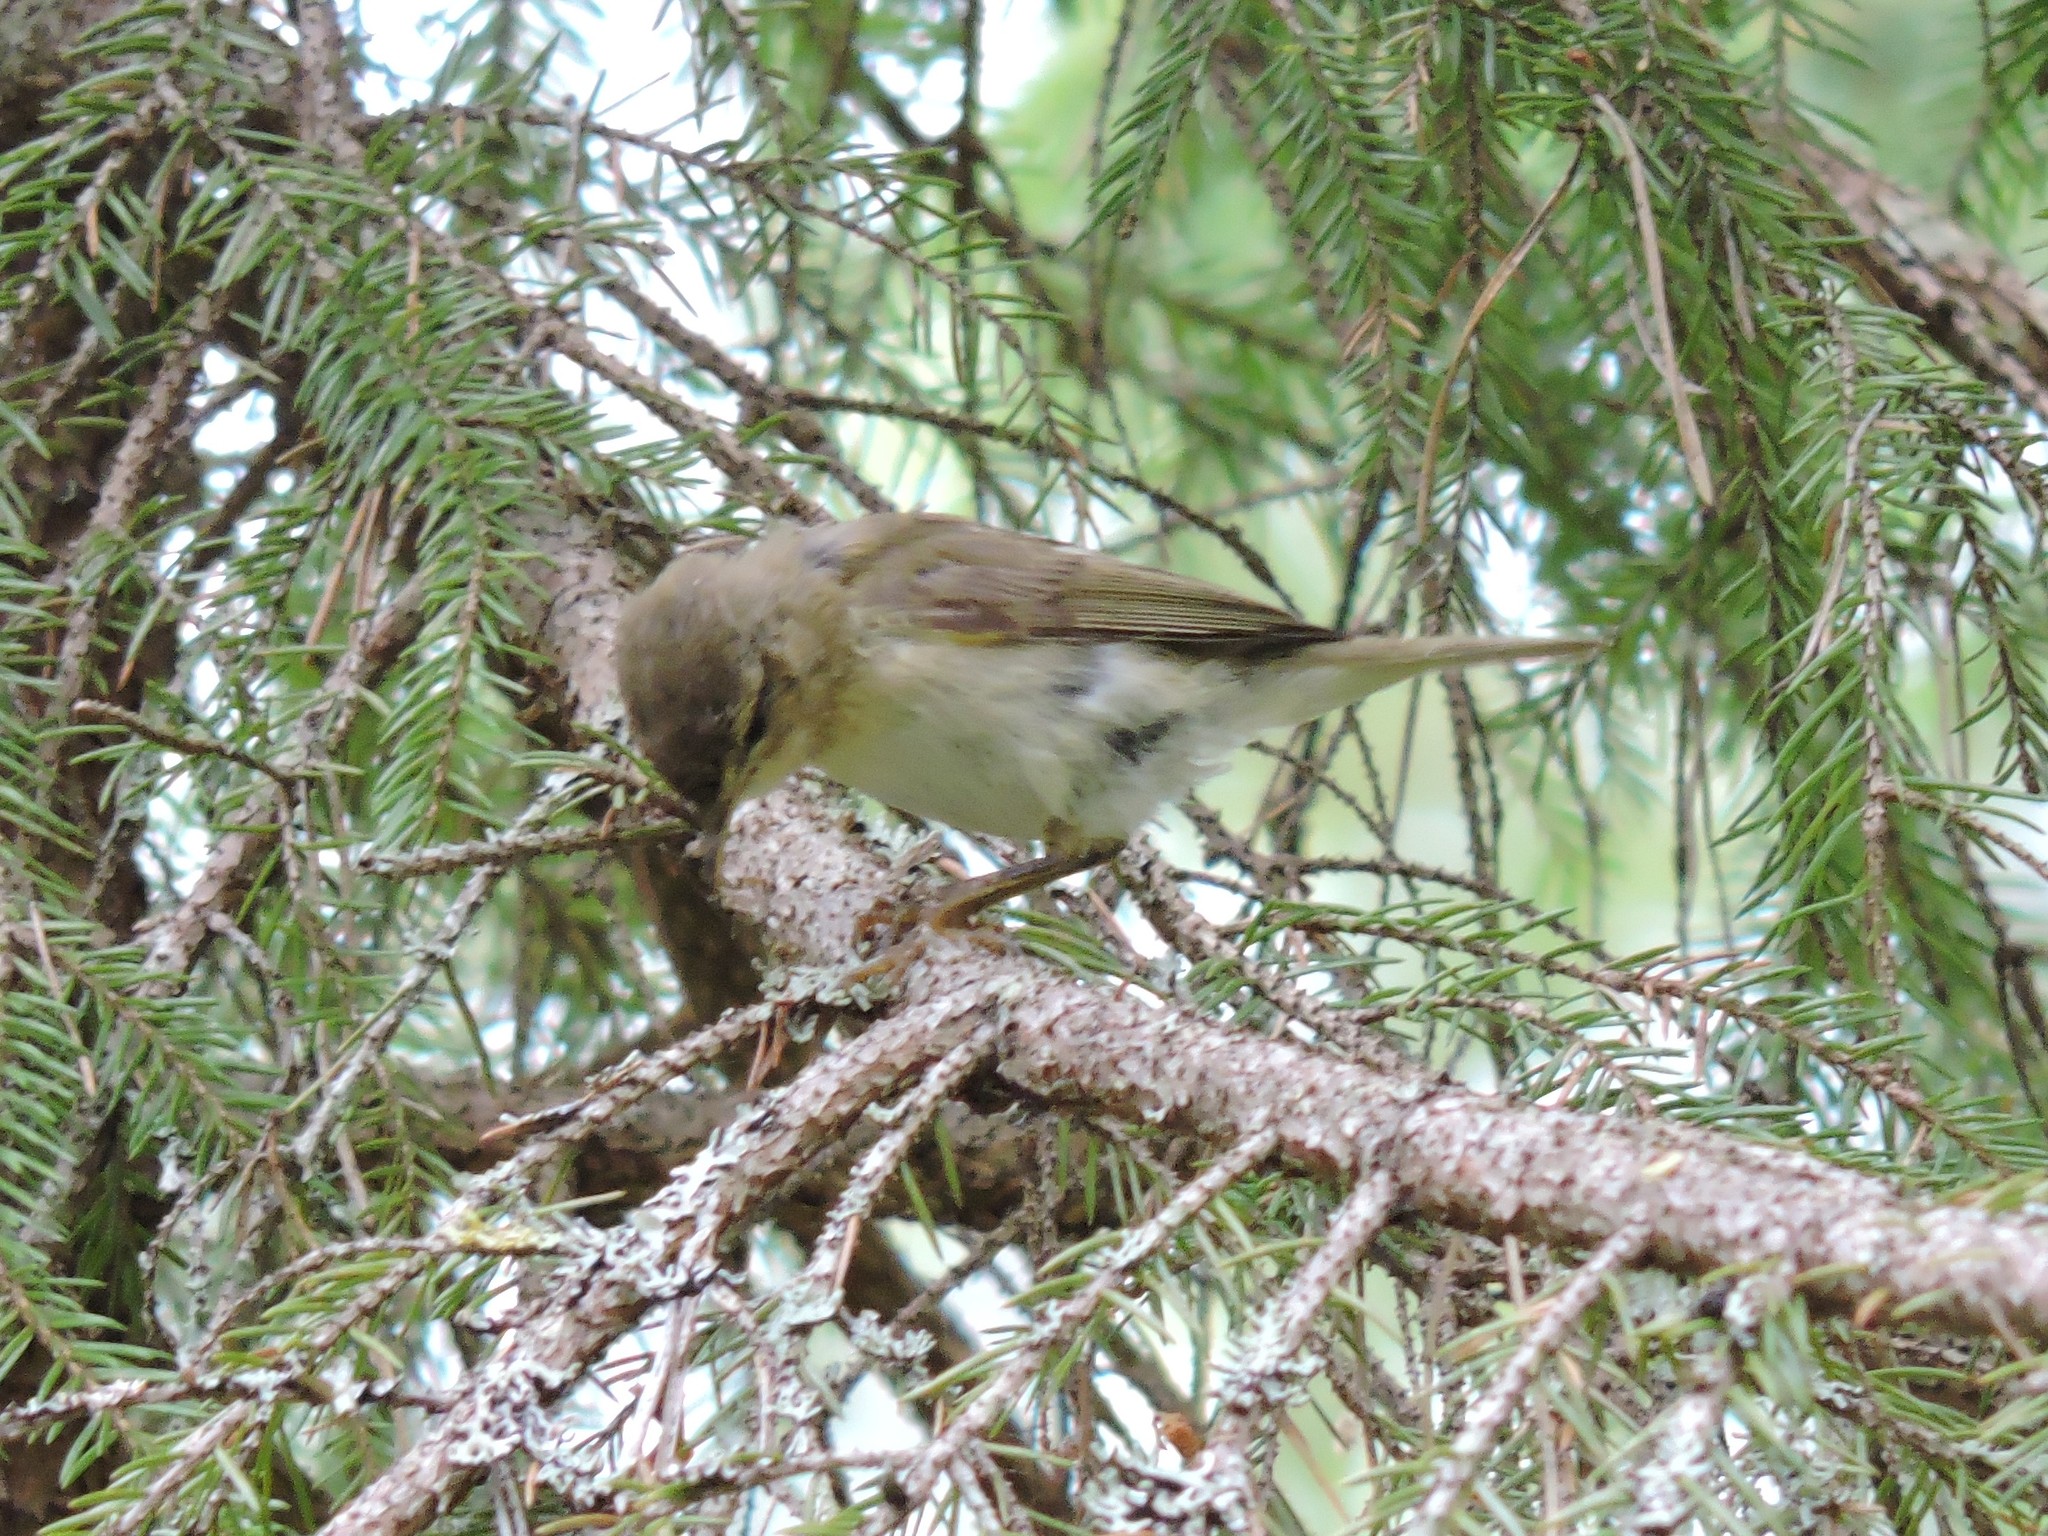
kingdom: Animalia
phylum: Chordata
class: Aves
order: Passeriformes
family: Phylloscopidae
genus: Phylloscopus
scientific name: Phylloscopus collybita
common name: Common chiffchaff
